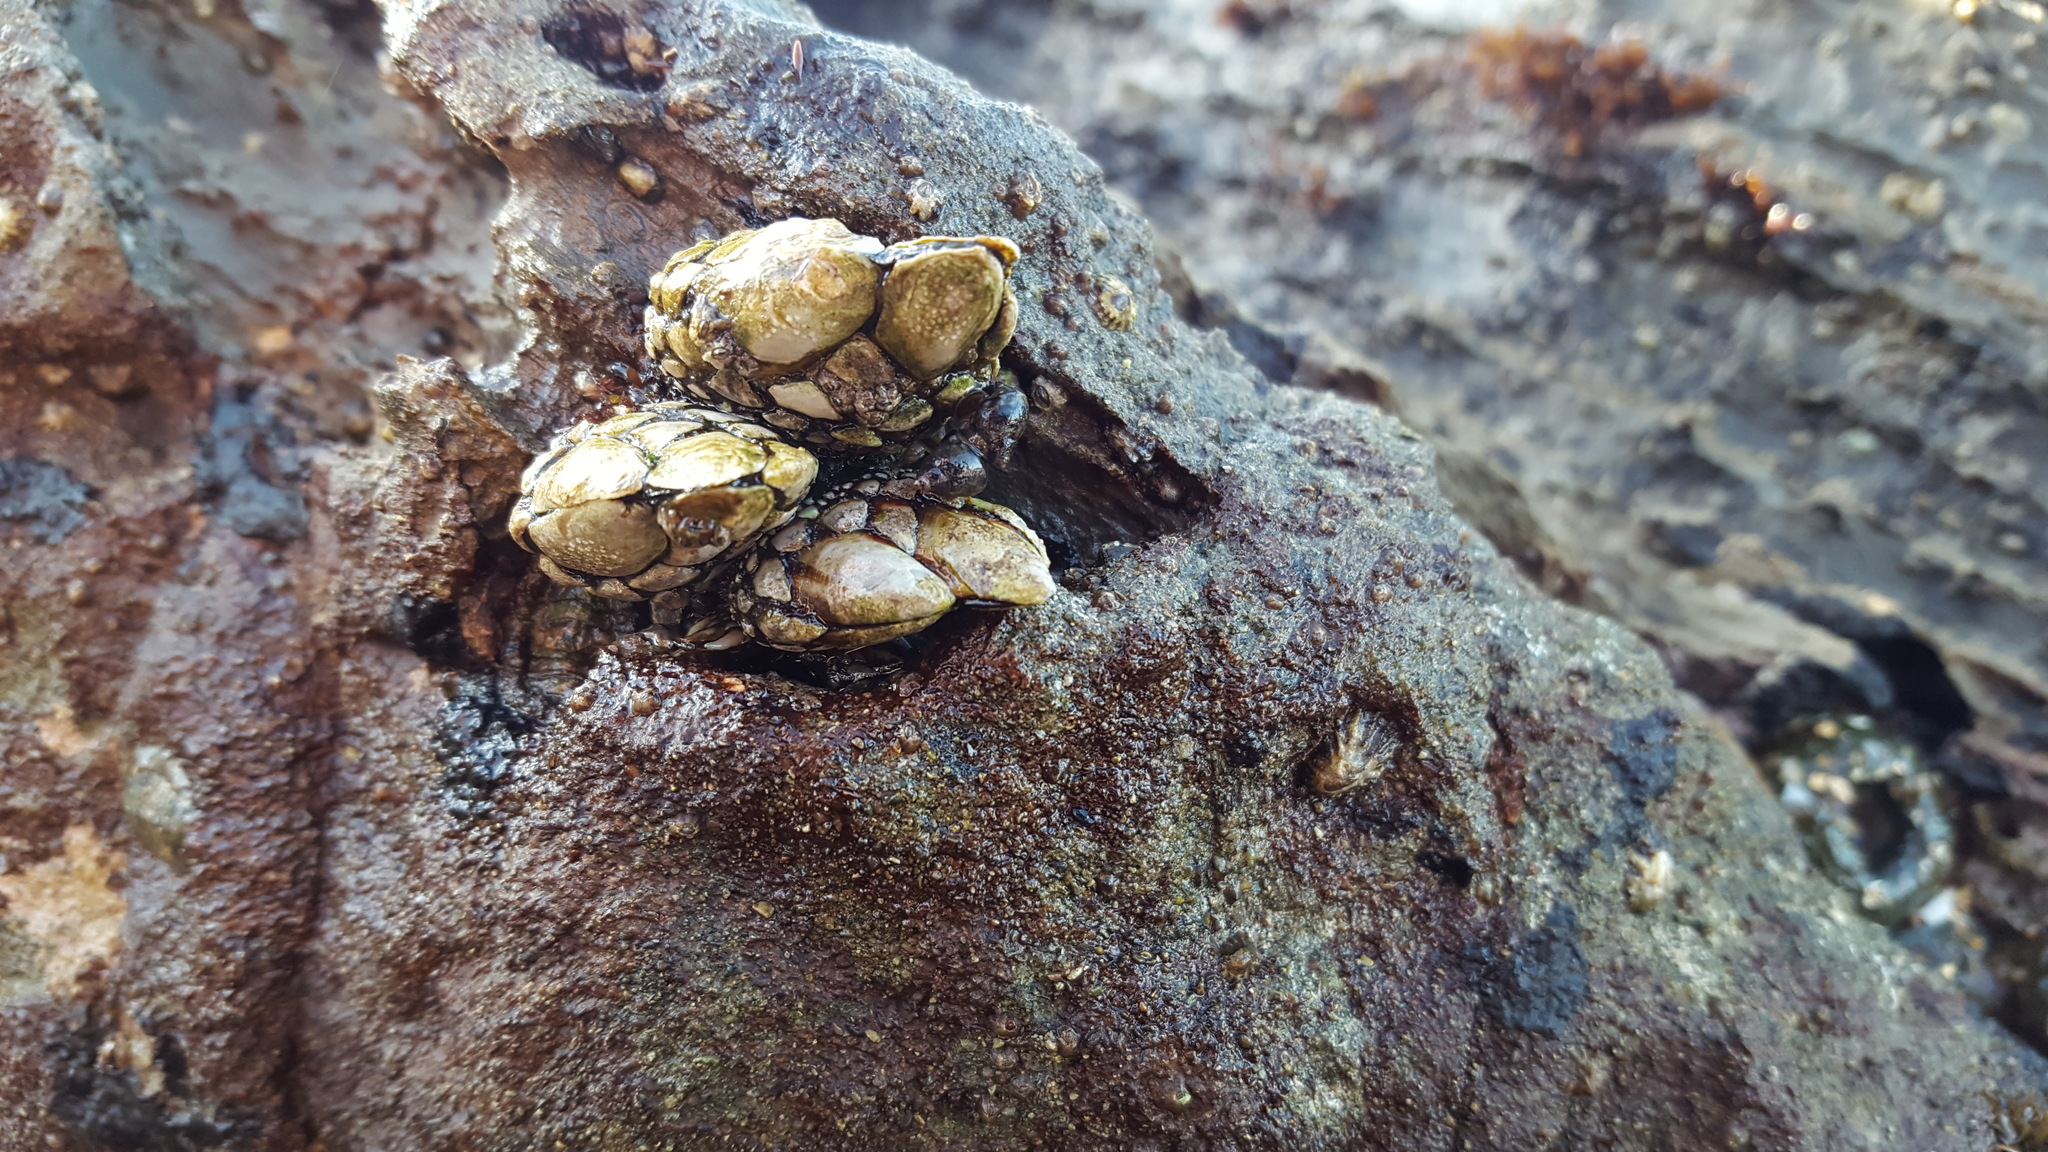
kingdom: Animalia
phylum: Arthropoda
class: Maxillopoda
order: Pedunculata
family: Pollicipedidae
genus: Pollicipes
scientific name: Pollicipes polymerus
